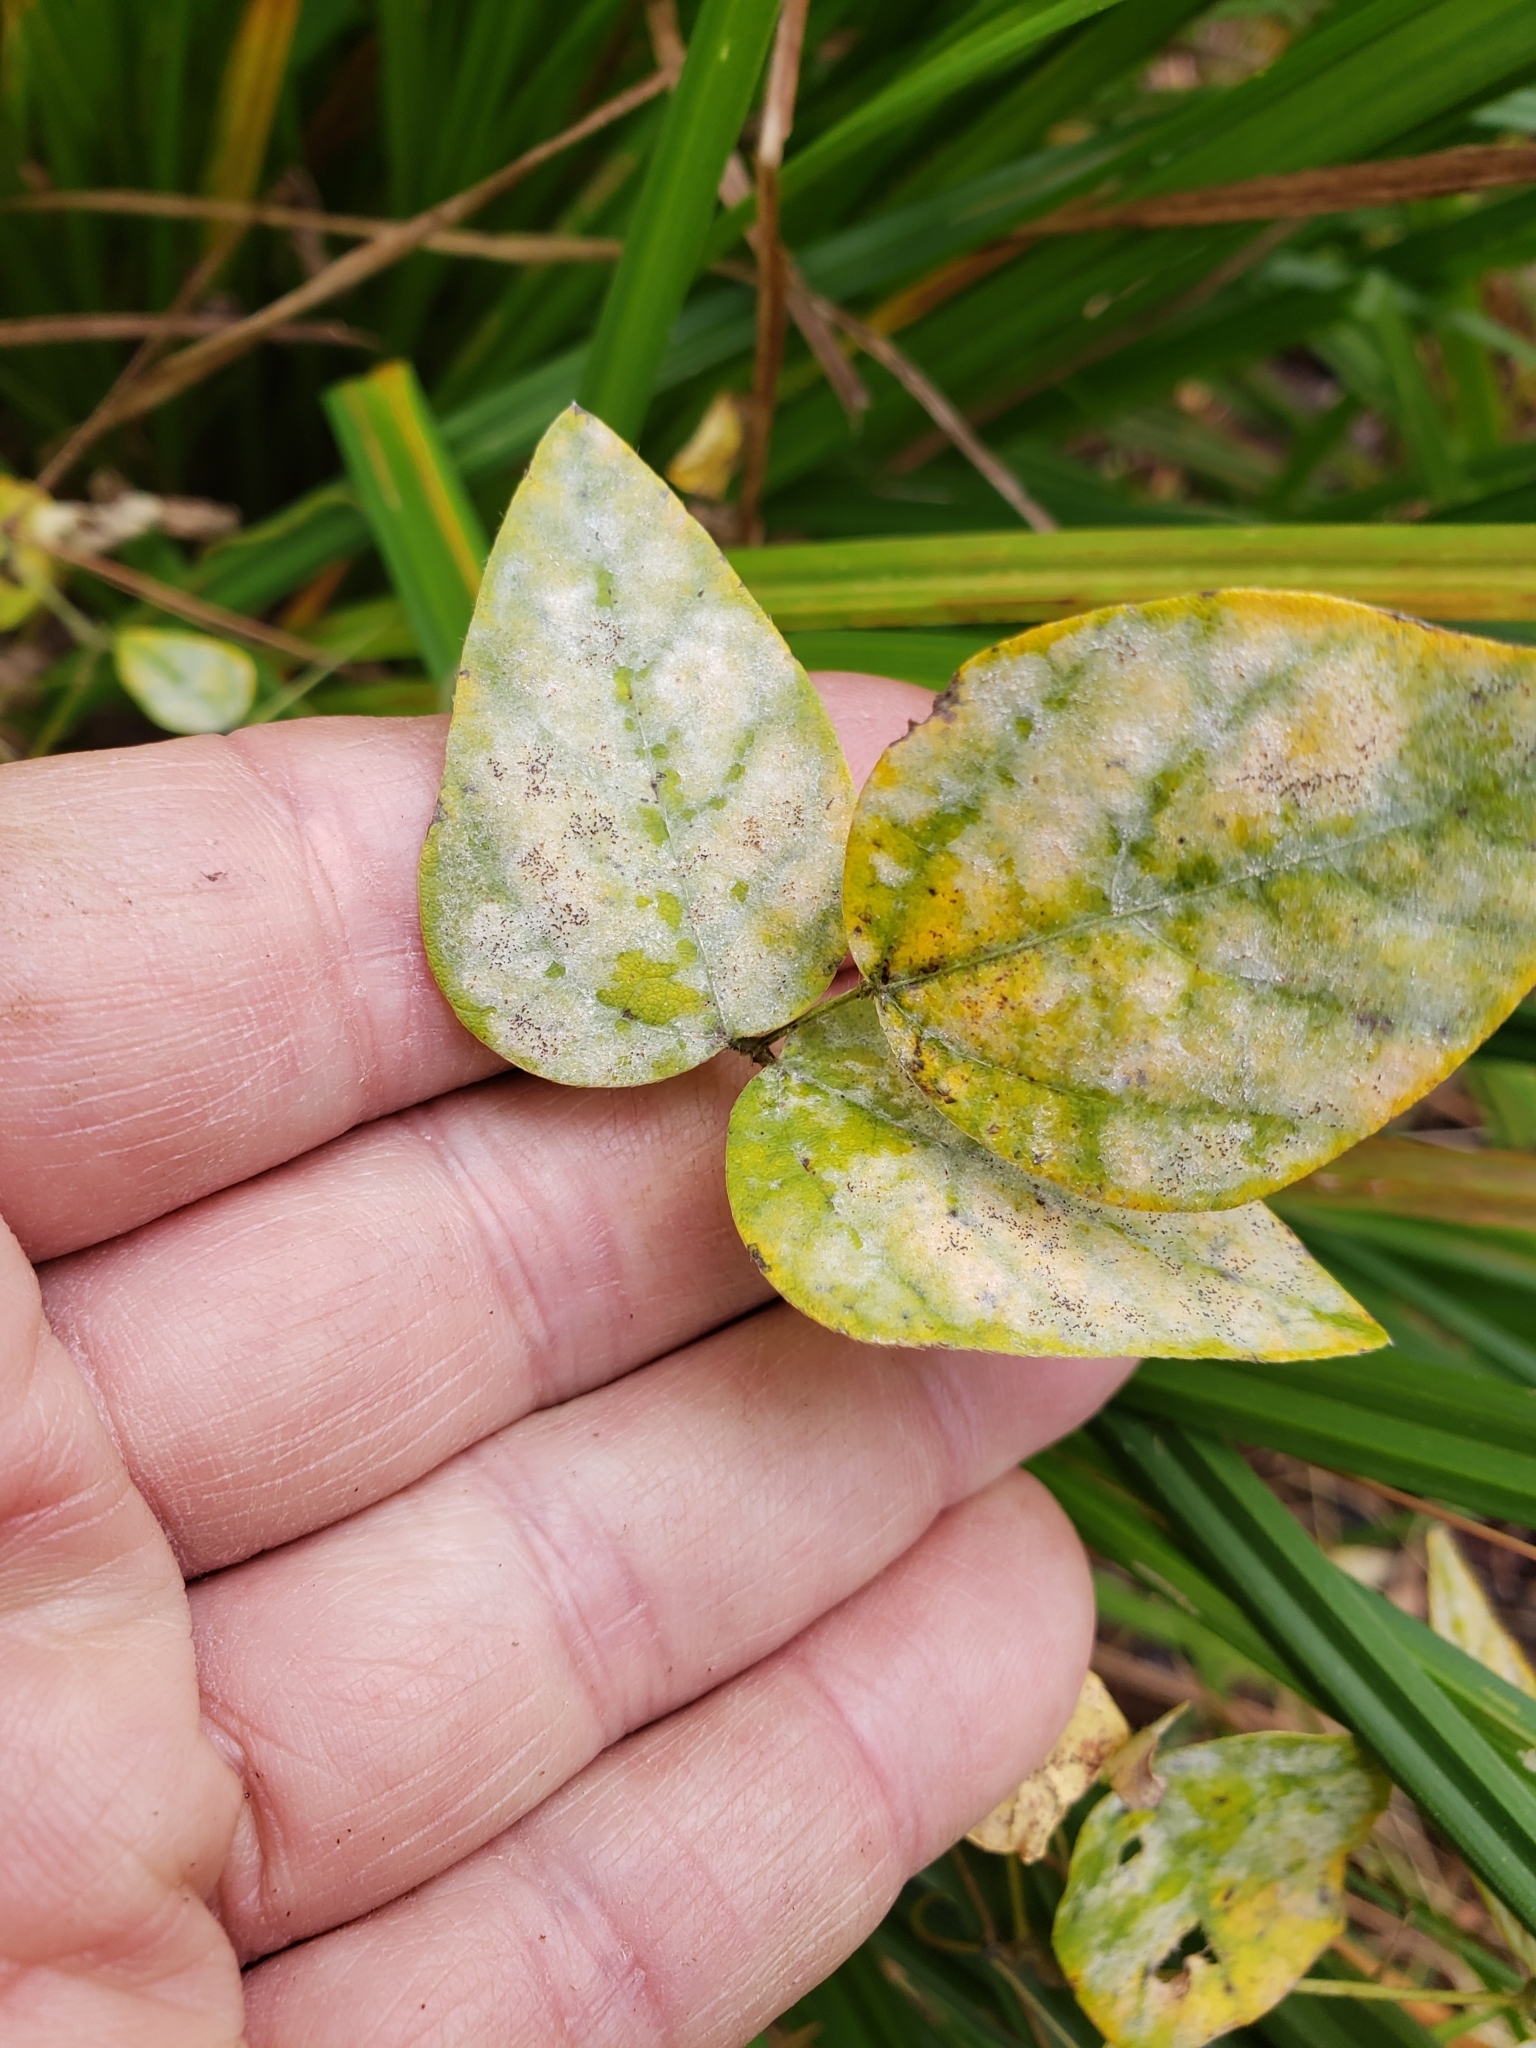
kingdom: Fungi
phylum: Ascomycota
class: Leotiomycetes
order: Helotiales
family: Erysiphaceae
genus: Erysiphe
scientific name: Erysiphe diffusa
